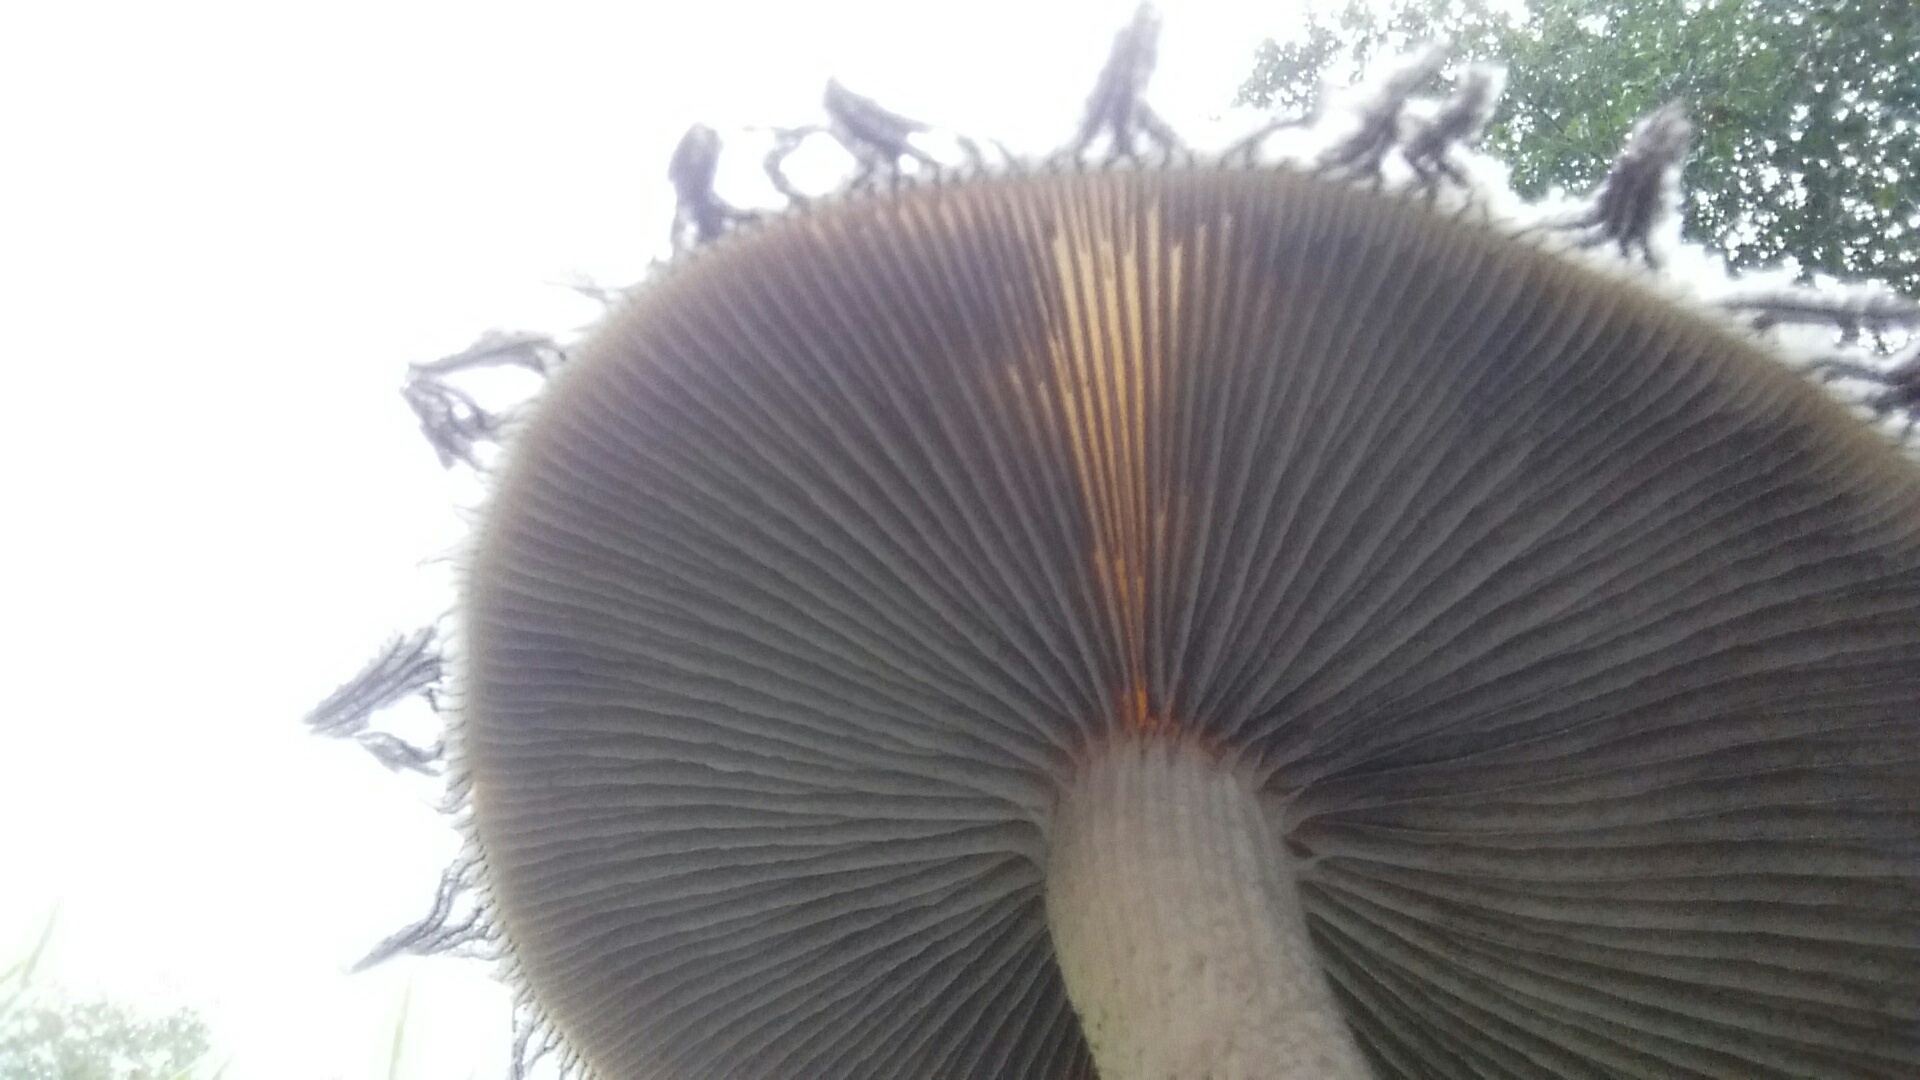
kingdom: Fungi
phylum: Basidiomycota
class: Agaricomycetes
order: Agaricales
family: Strophariaceae
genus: Stropharia
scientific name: Stropharia ambigua
